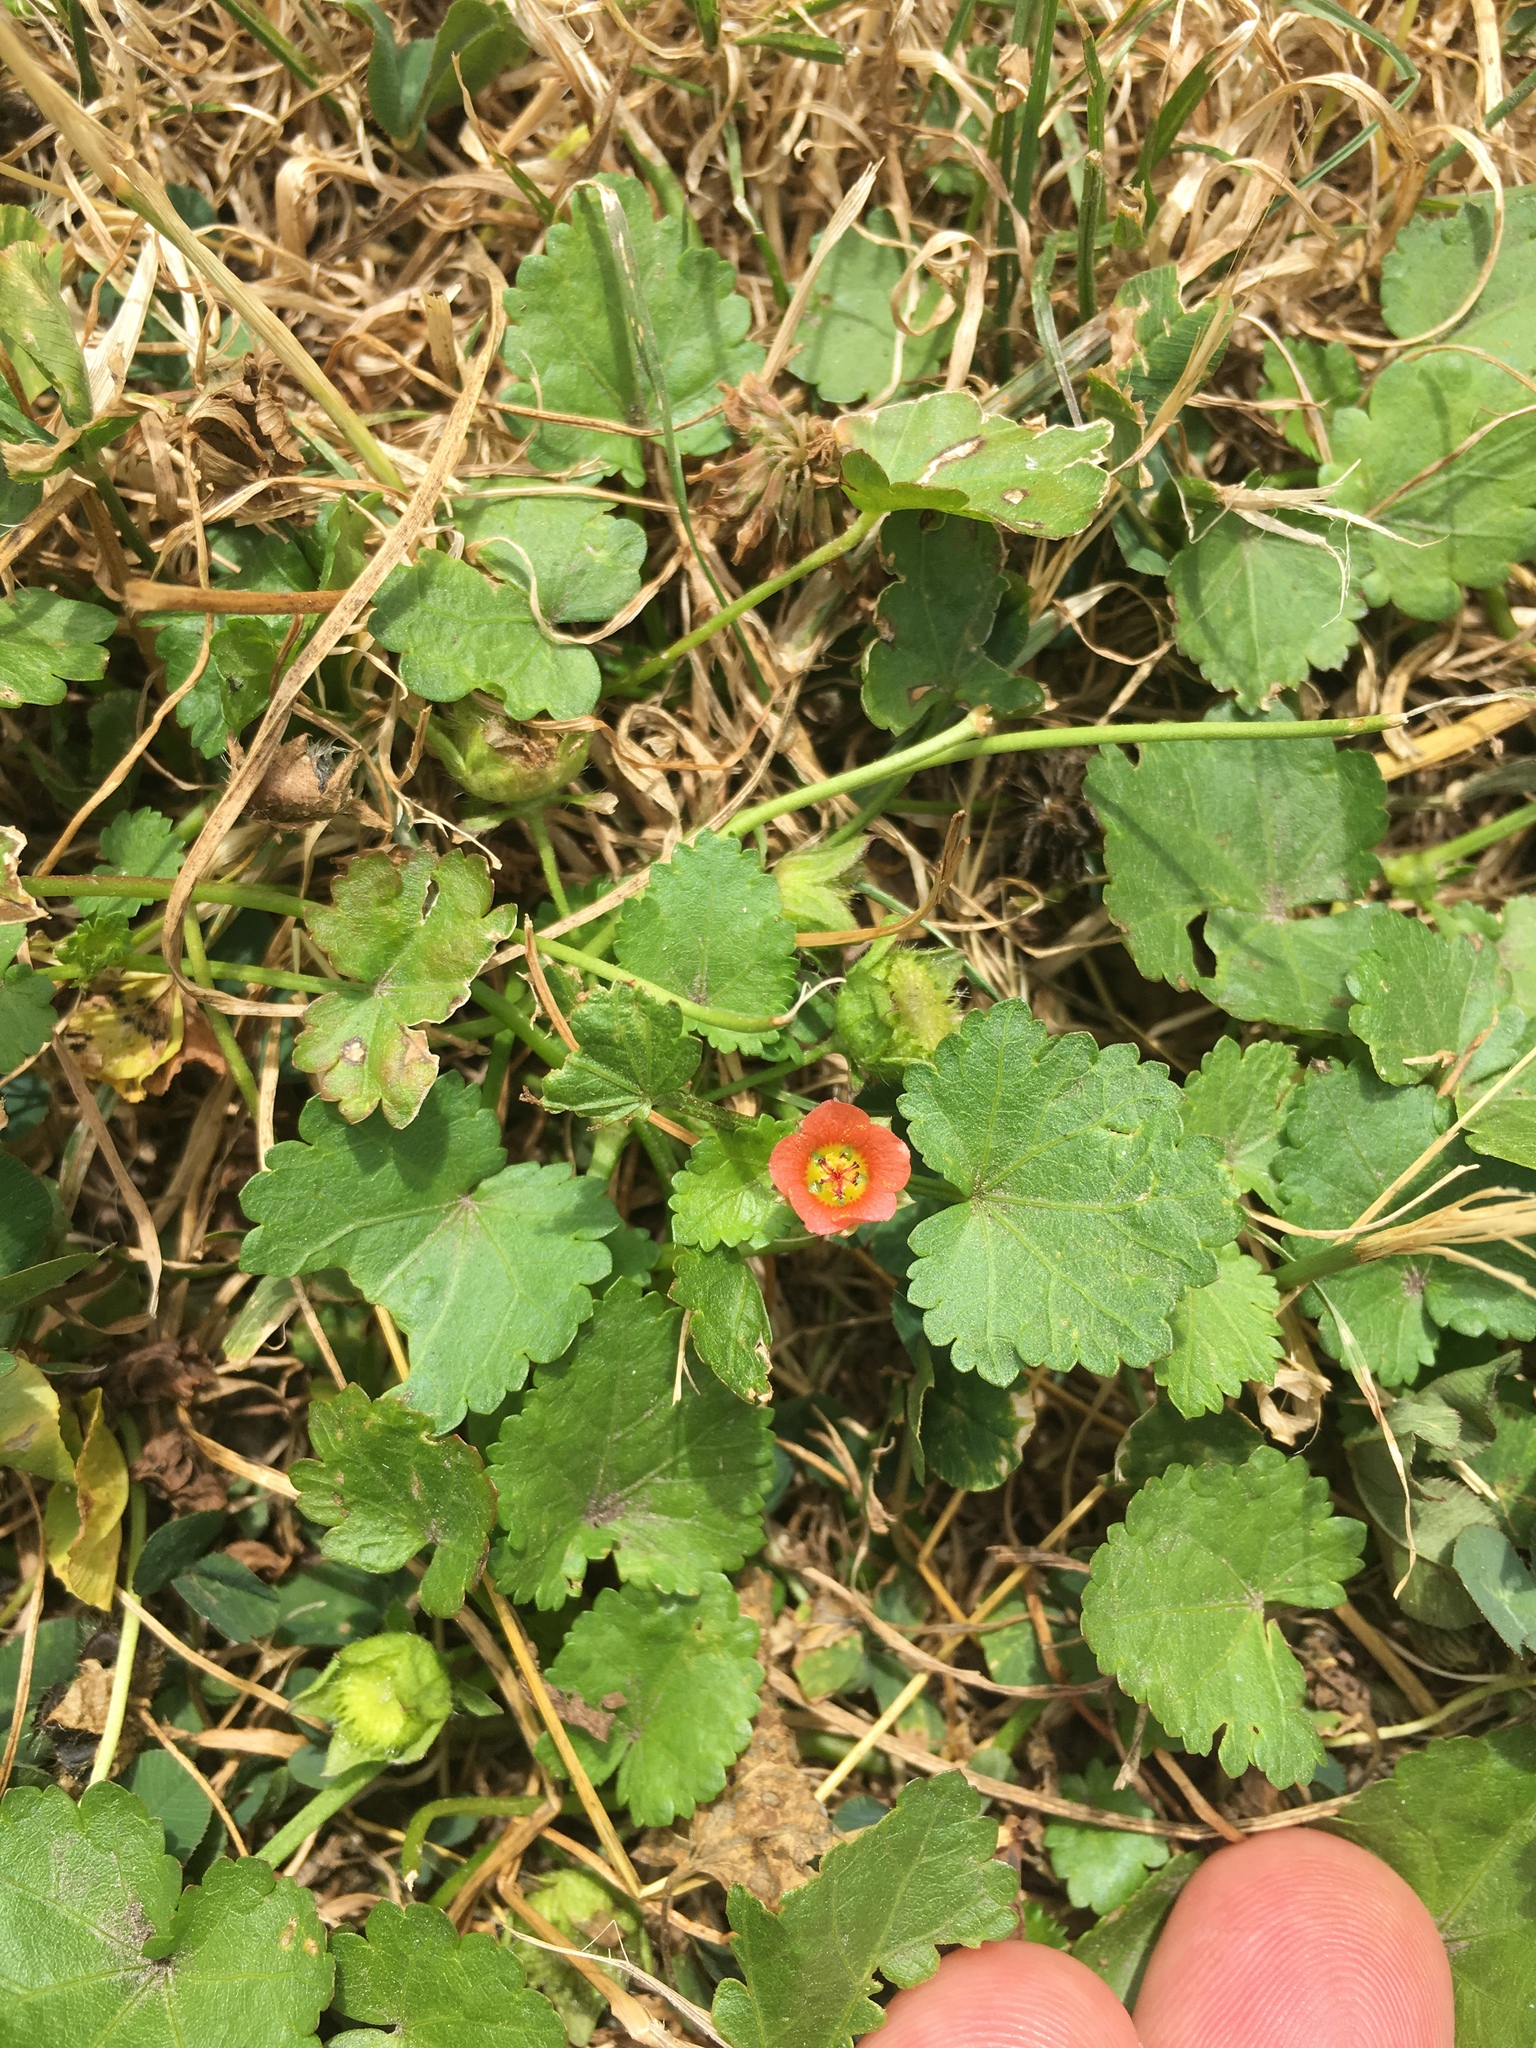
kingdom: Plantae
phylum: Tracheophyta
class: Magnoliopsida
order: Malvales
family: Malvaceae
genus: Modiola
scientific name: Modiola caroliniana
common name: Carolina bristlemallow
